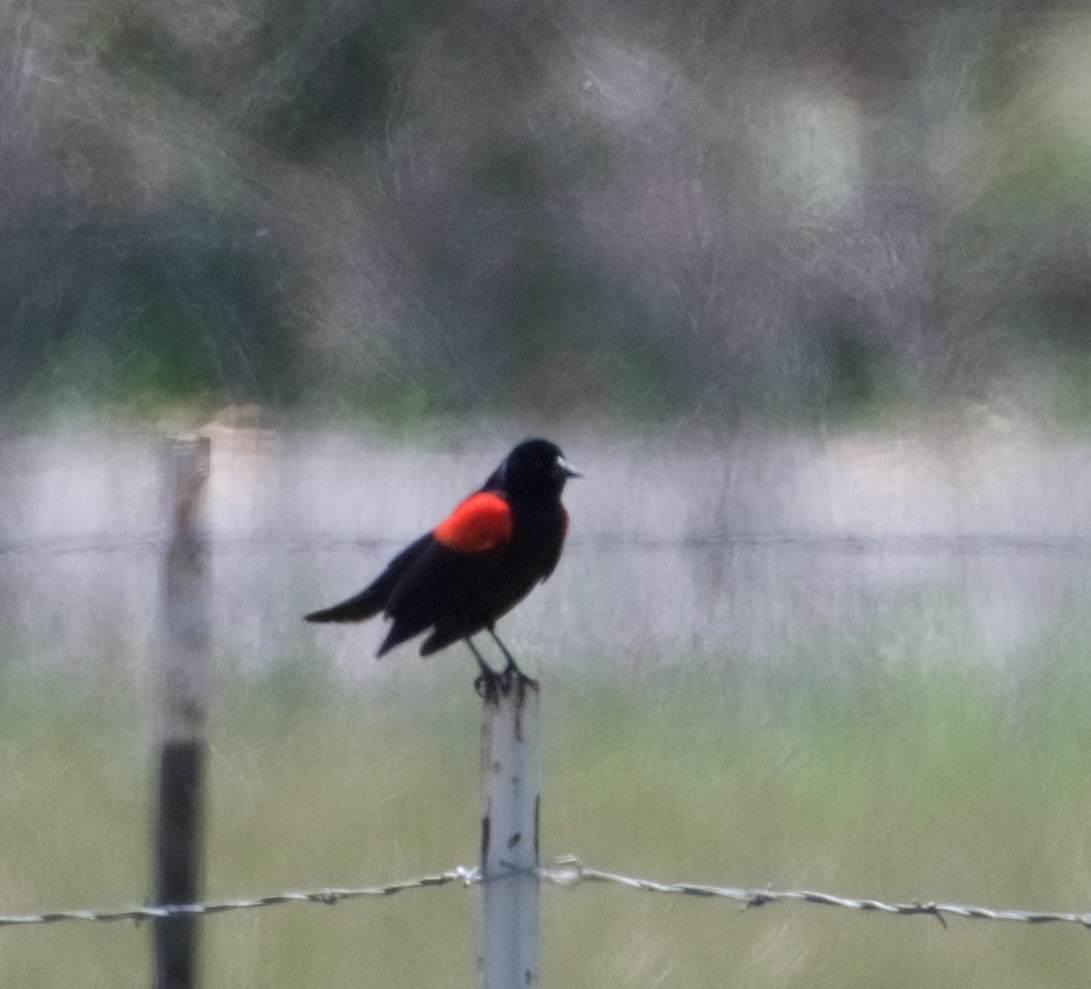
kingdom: Animalia
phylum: Chordata
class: Aves
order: Passeriformes
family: Icteridae
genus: Agelaius
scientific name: Agelaius phoeniceus
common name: Red-winged blackbird
